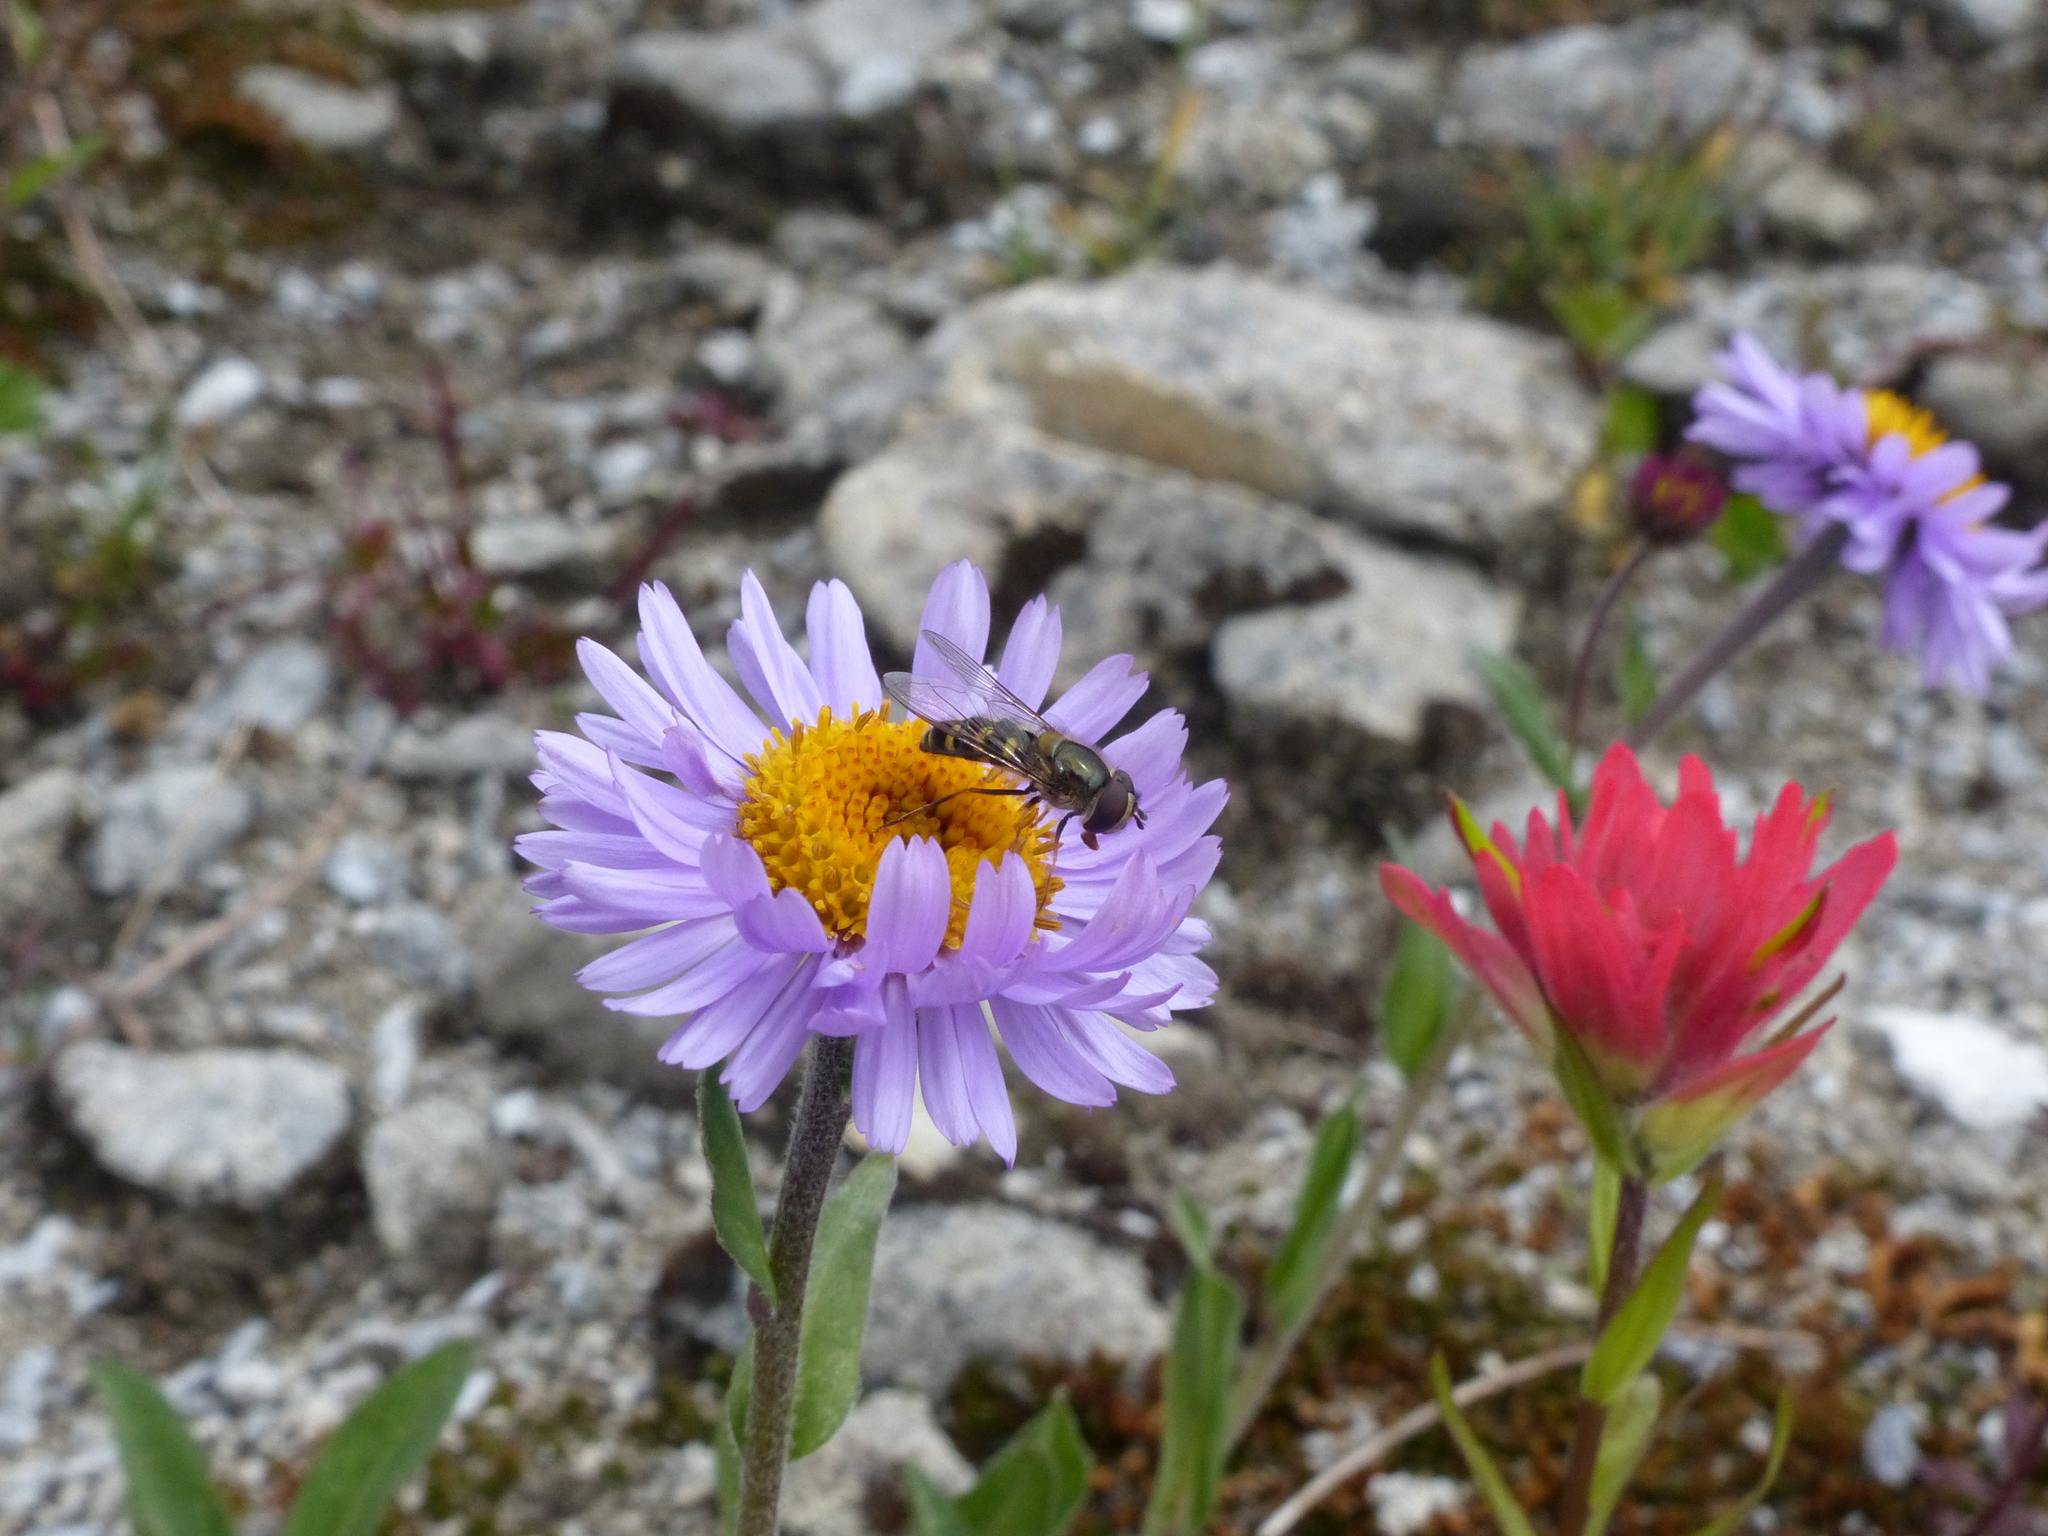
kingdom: Animalia
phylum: Arthropoda
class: Insecta
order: Diptera
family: Syrphidae
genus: Lapposyrphus
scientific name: Lapposyrphus lapponicus
